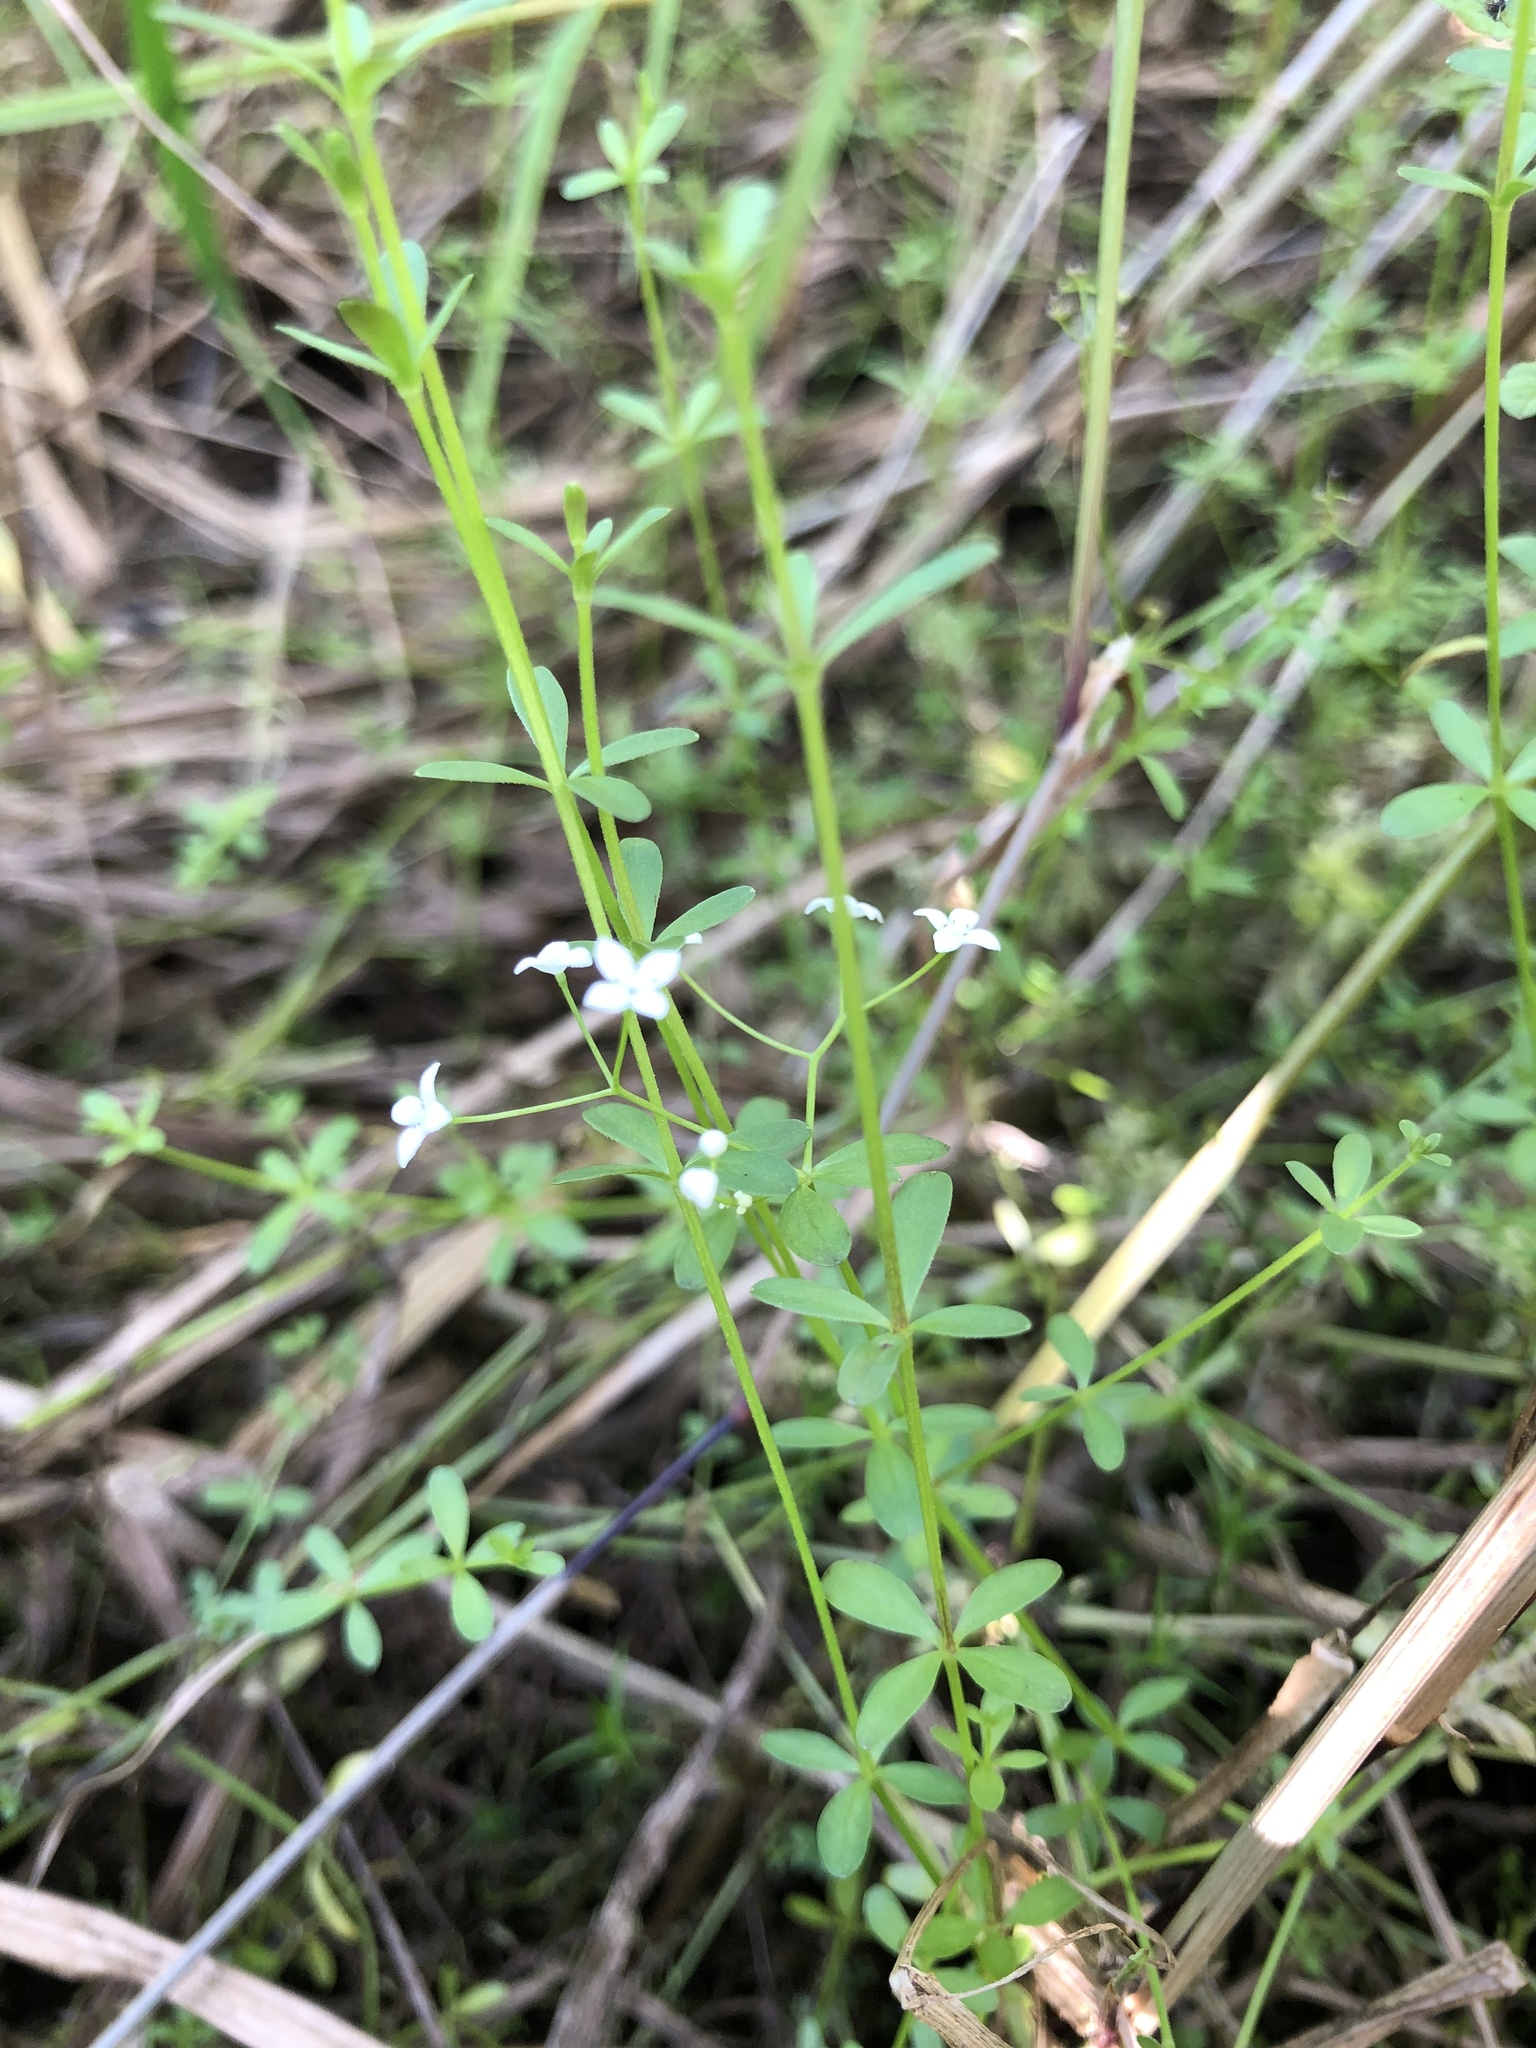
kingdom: Plantae
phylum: Tracheophyta
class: Magnoliopsida
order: Gentianales
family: Rubiaceae
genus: Galium
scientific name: Galium palustre
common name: Common marsh-bedstraw
